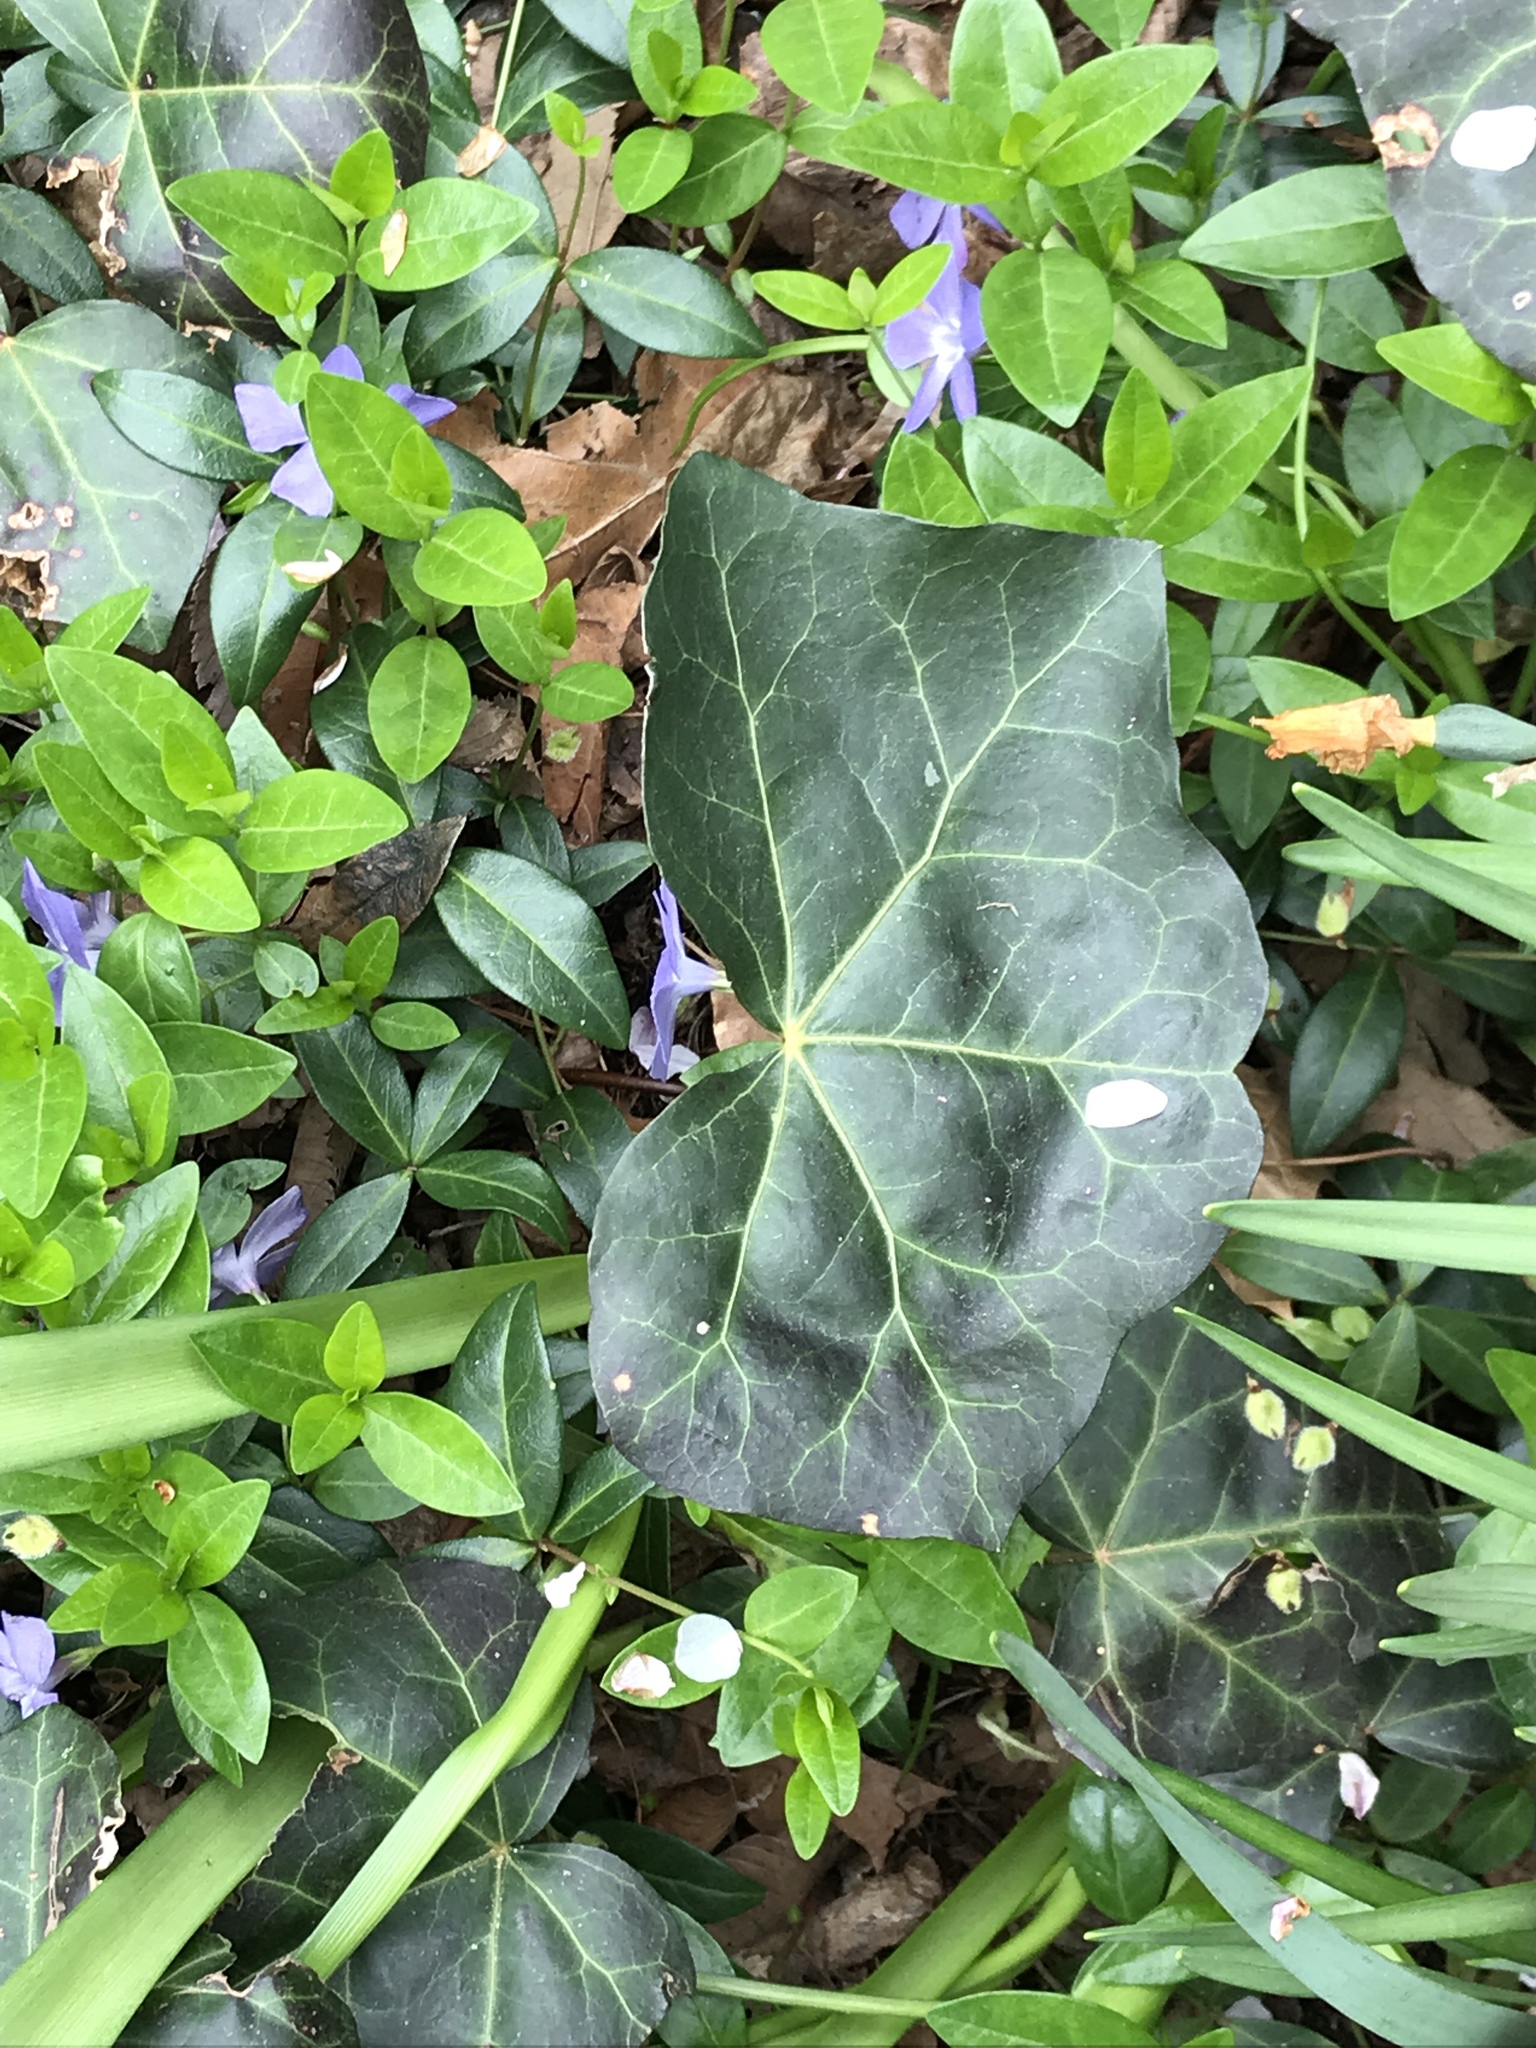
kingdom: Plantae
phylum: Tracheophyta
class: Magnoliopsida
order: Apiales
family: Araliaceae
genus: Hedera
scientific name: Hedera helix
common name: Ivy
